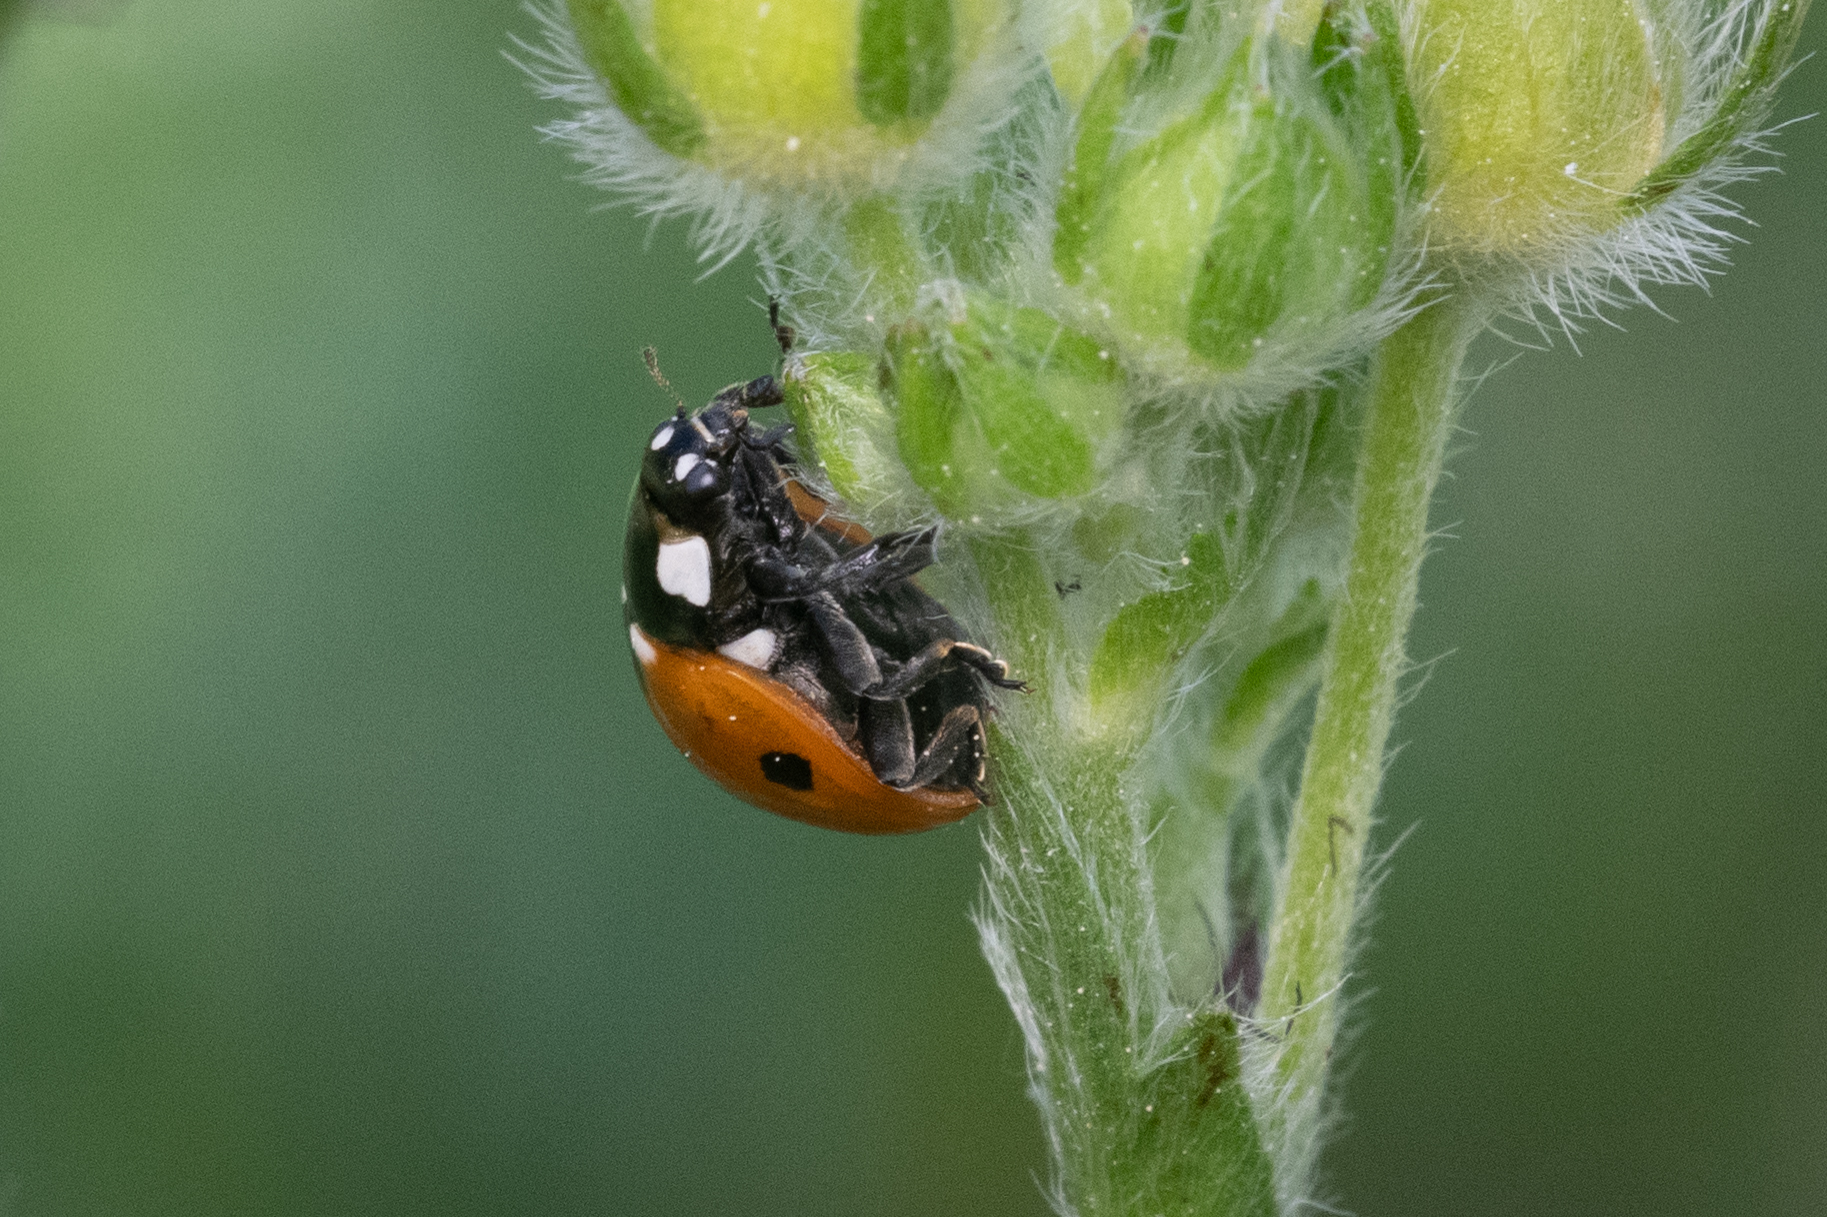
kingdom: Animalia
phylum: Arthropoda
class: Insecta
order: Coleoptera
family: Coccinellidae
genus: Coccinella
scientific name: Coccinella septempunctata
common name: Sevenspotted lady beetle
